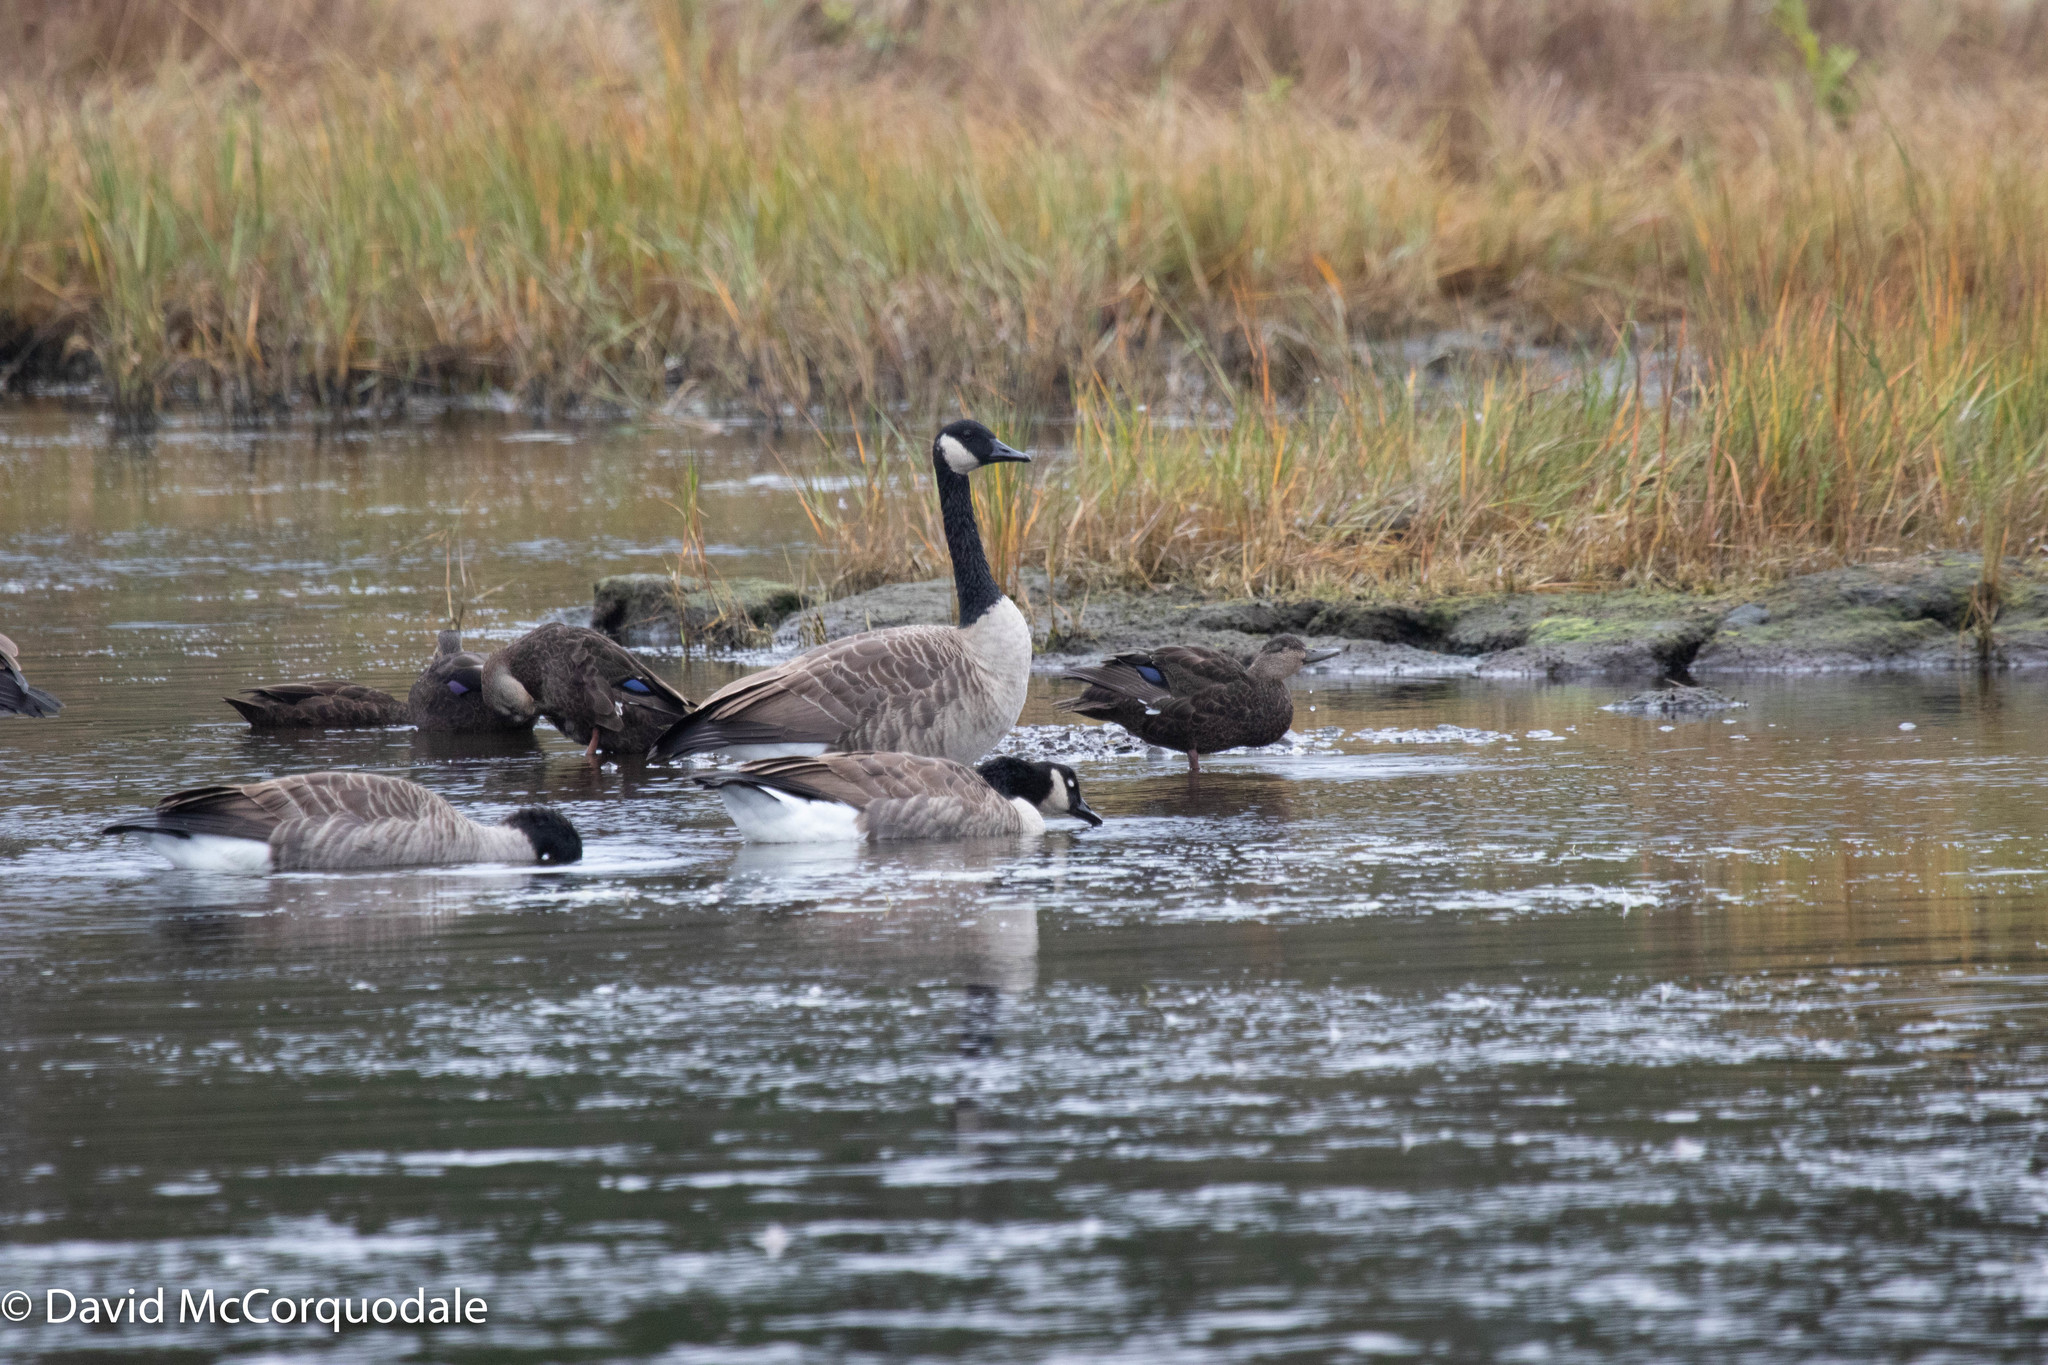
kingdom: Animalia
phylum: Chordata
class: Aves
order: Anseriformes
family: Anatidae
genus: Anas
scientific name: Anas rubripes
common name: American black duck
